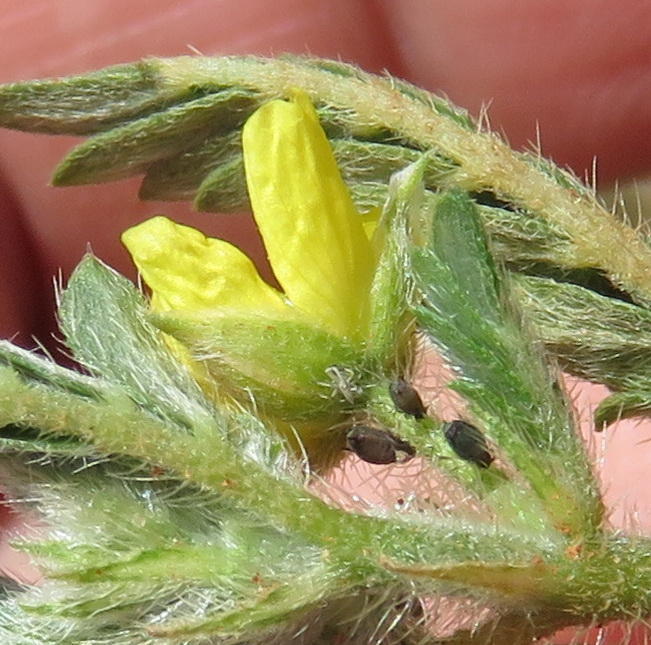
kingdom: Plantae
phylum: Tracheophyta
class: Magnoliopsida
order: Zygophyllales
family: Zygophyllaceae
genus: Tribulus
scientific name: Tribulus terrestris
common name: Puncturevine
